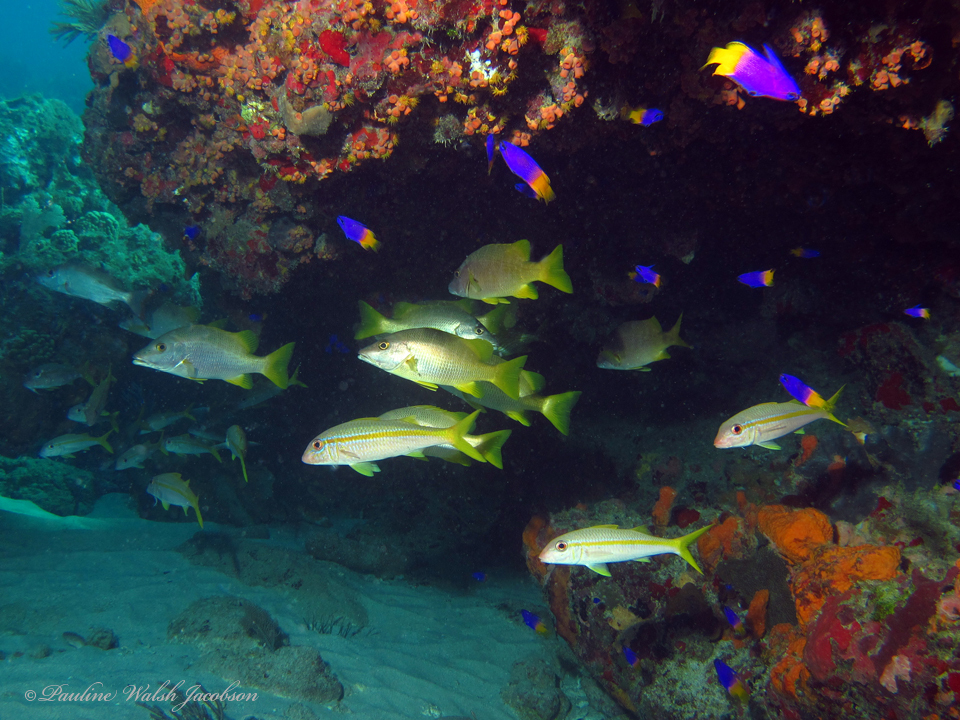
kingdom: Animalia
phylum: Chordata
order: Perciformes
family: Mullidae
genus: Mulloidichthys
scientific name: Mulloidichthys martinicus
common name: Yellow goatfish
